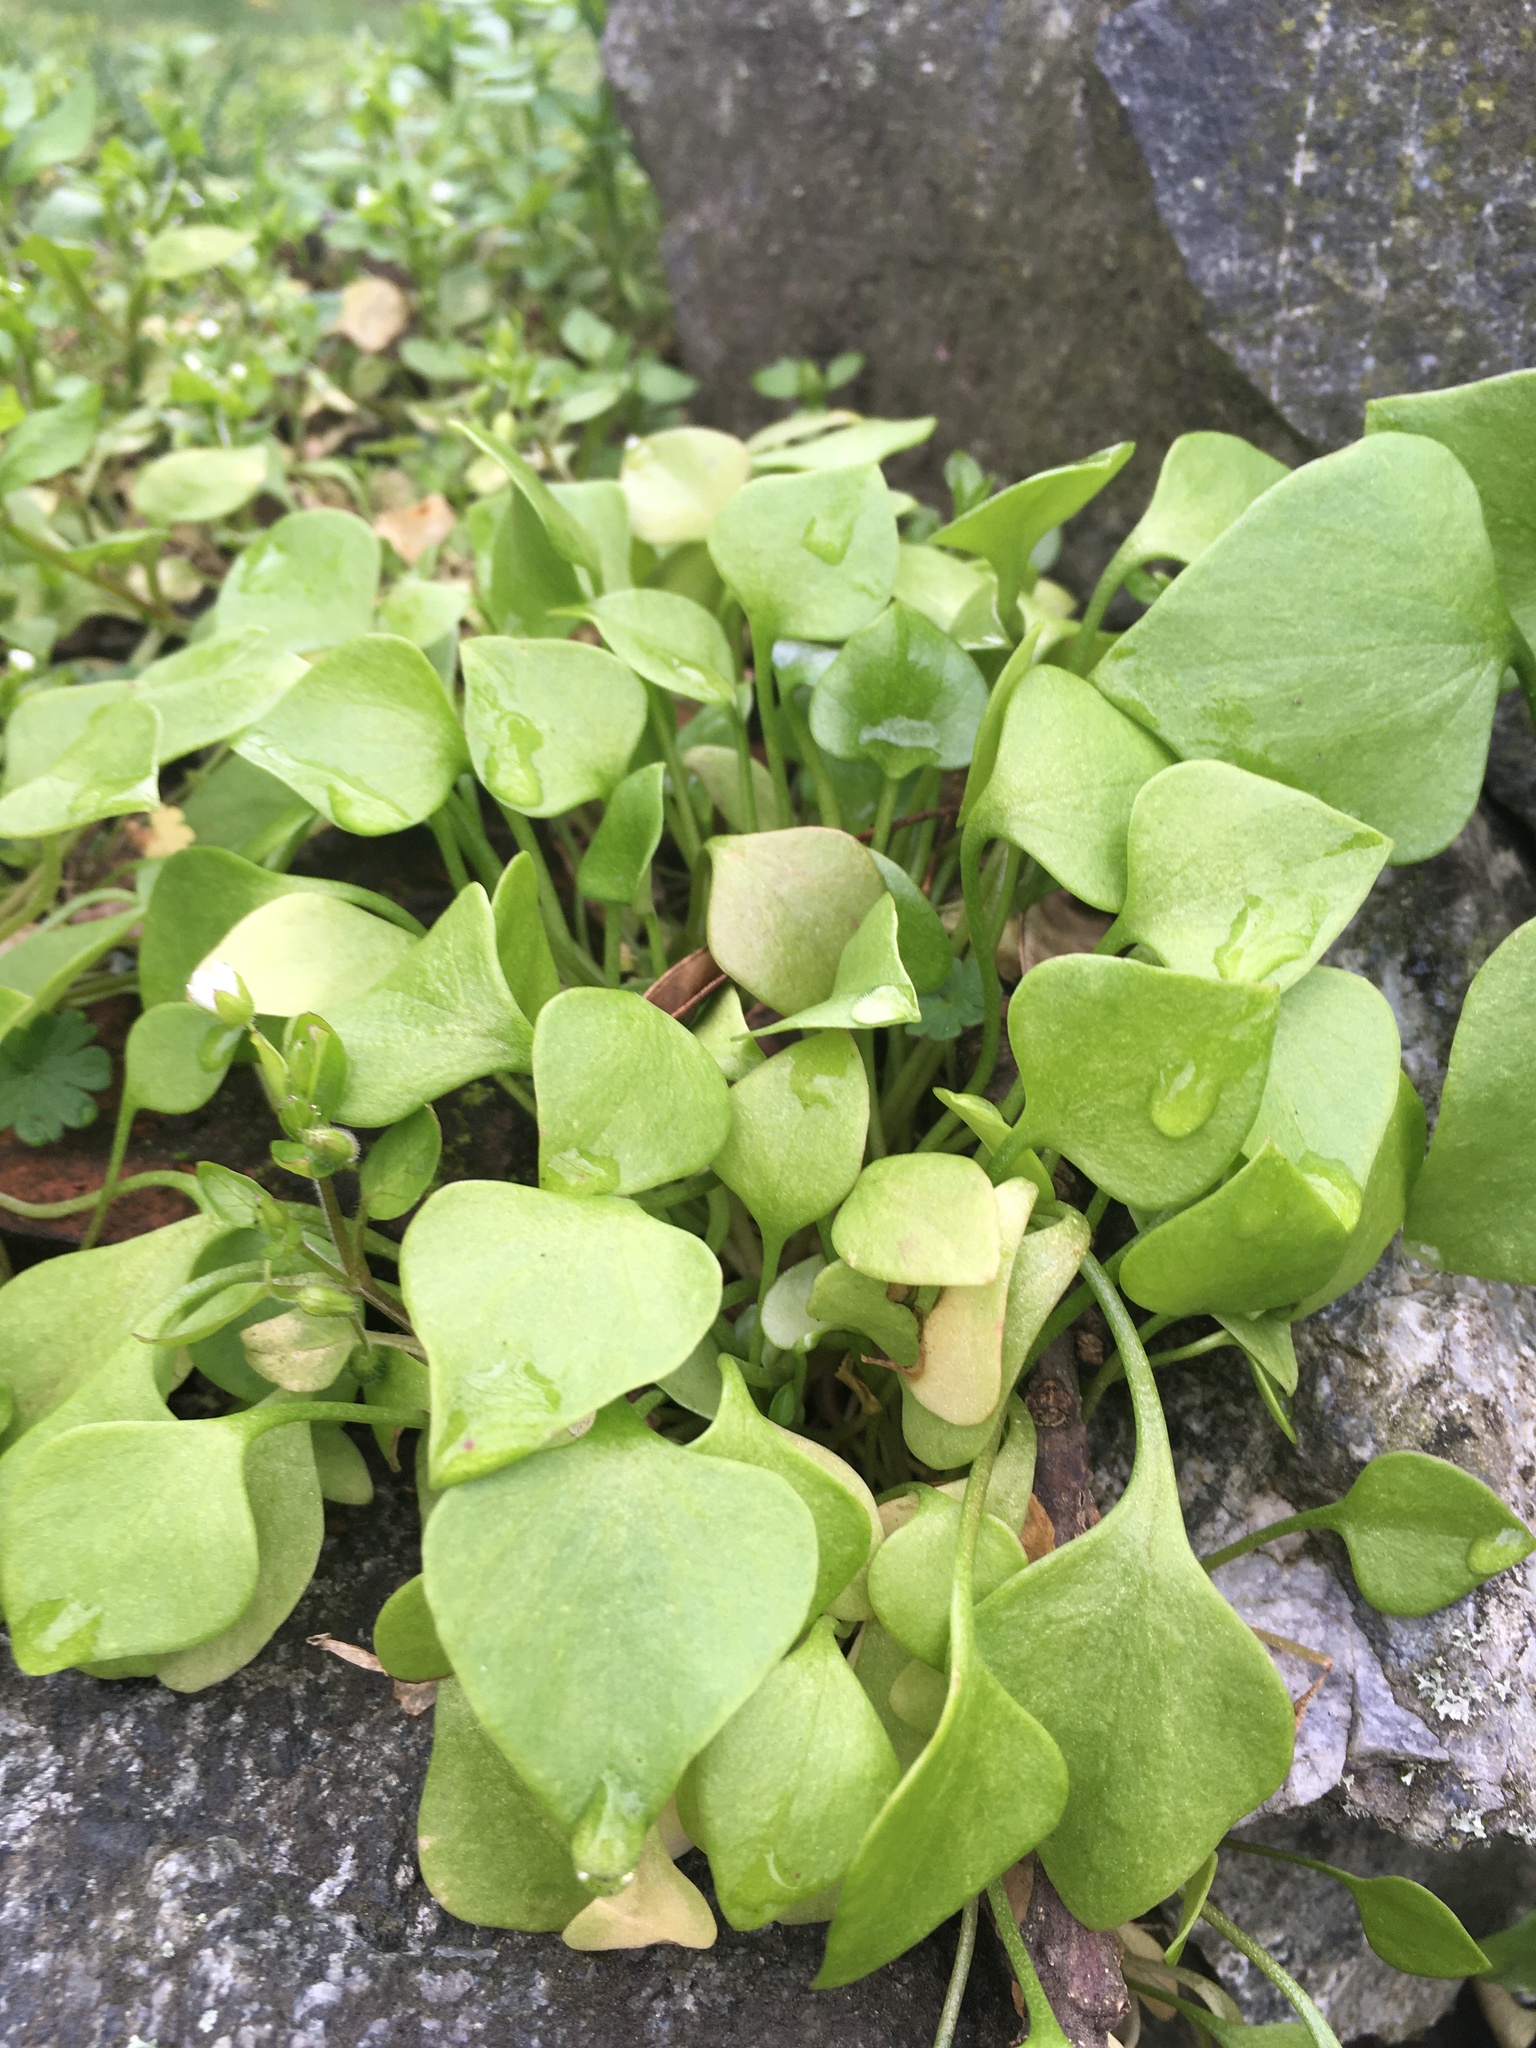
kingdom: Plantae
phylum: Tracheophyta
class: Magnoliopsida
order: Caryophyllales
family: Montiaceae
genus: Claytonia
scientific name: Claytonia perfoliata
